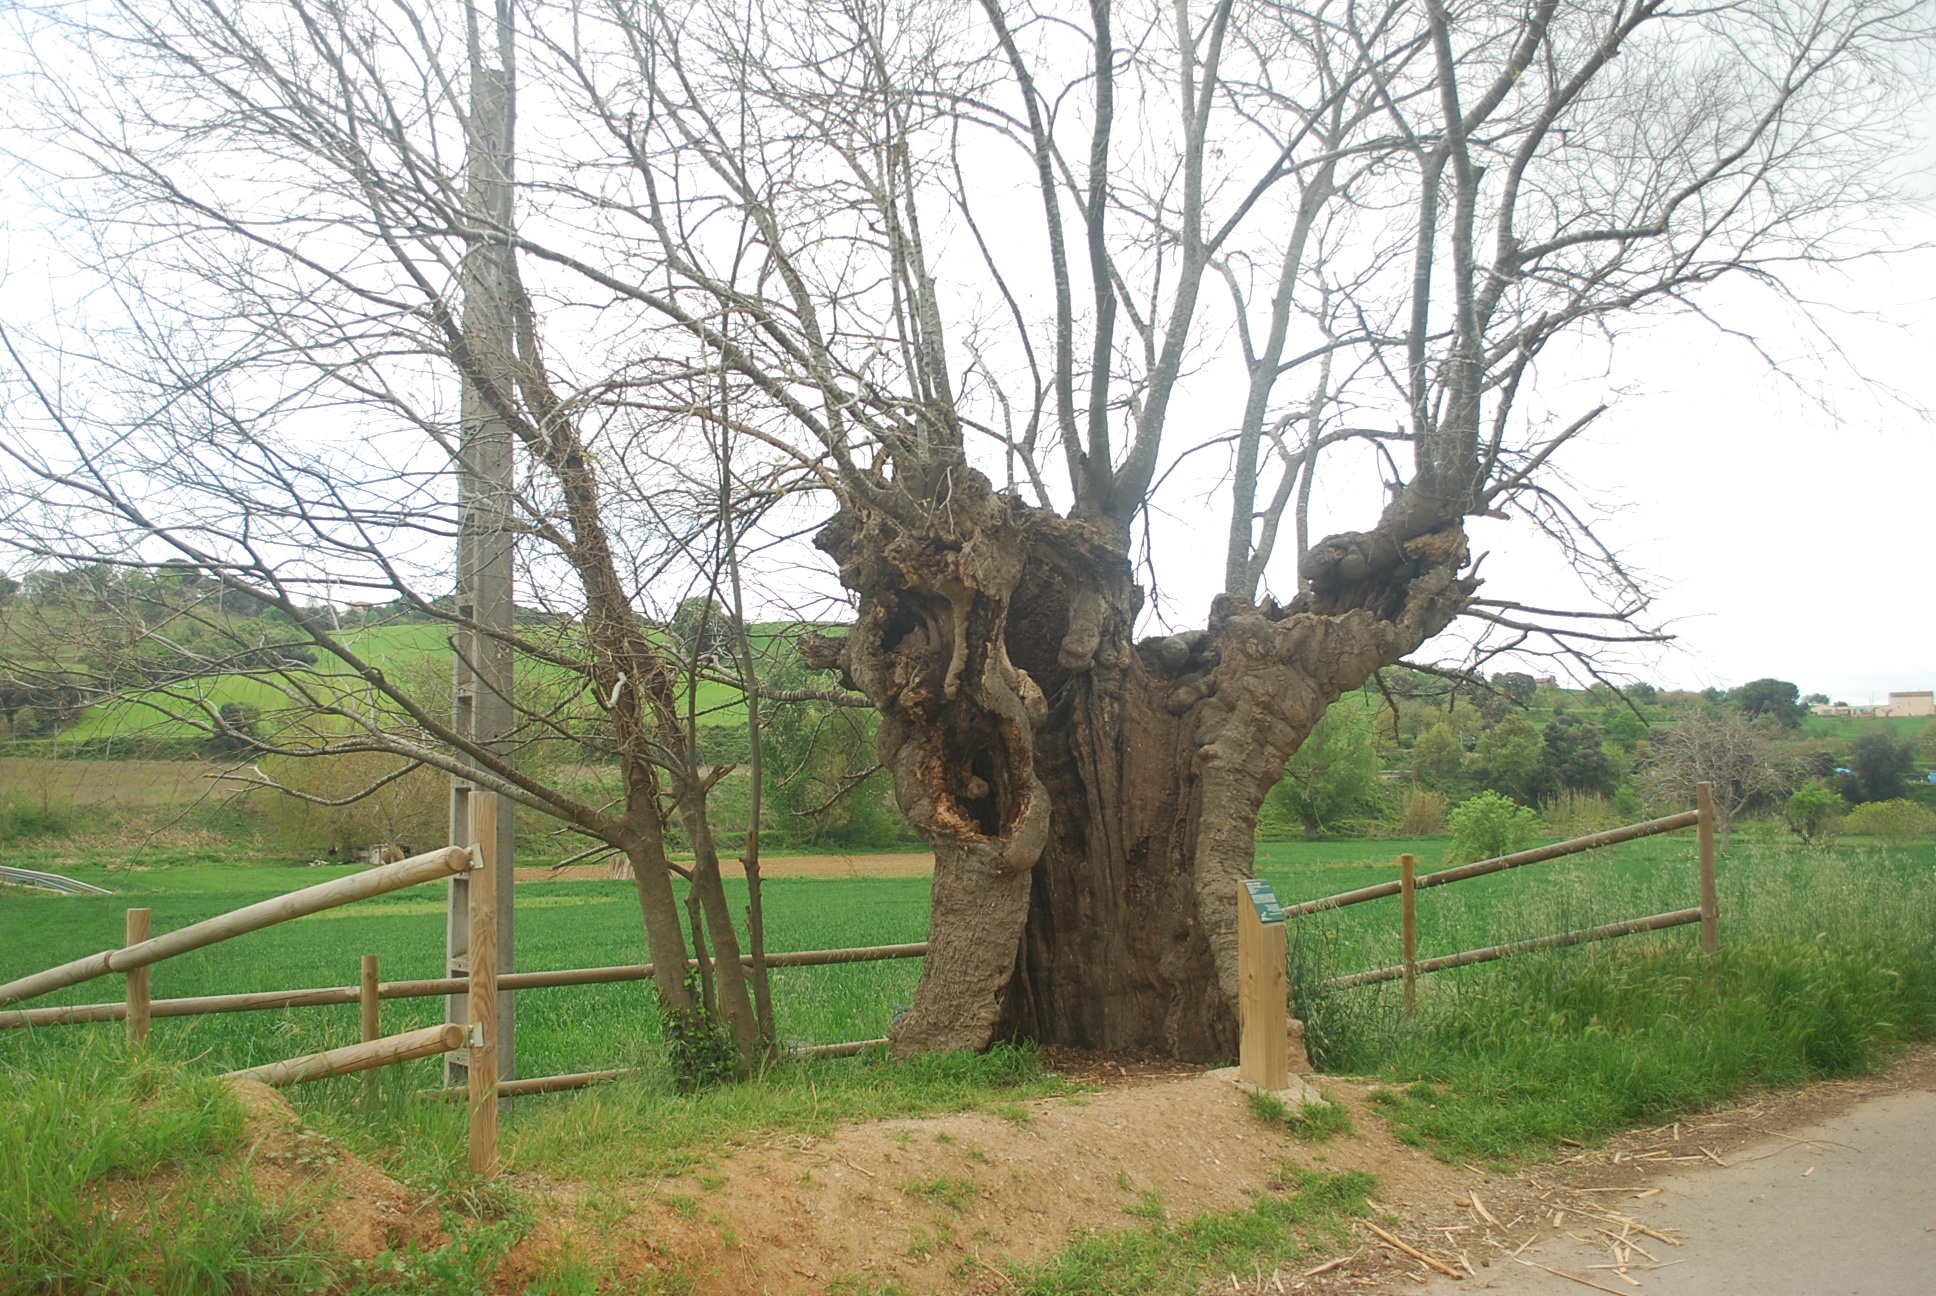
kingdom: Plantae
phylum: Tracheophyta
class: Magnoliopsida
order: Rosales
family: Cannabaceae
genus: Celtis
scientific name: Celtis australis
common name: European hackberry
